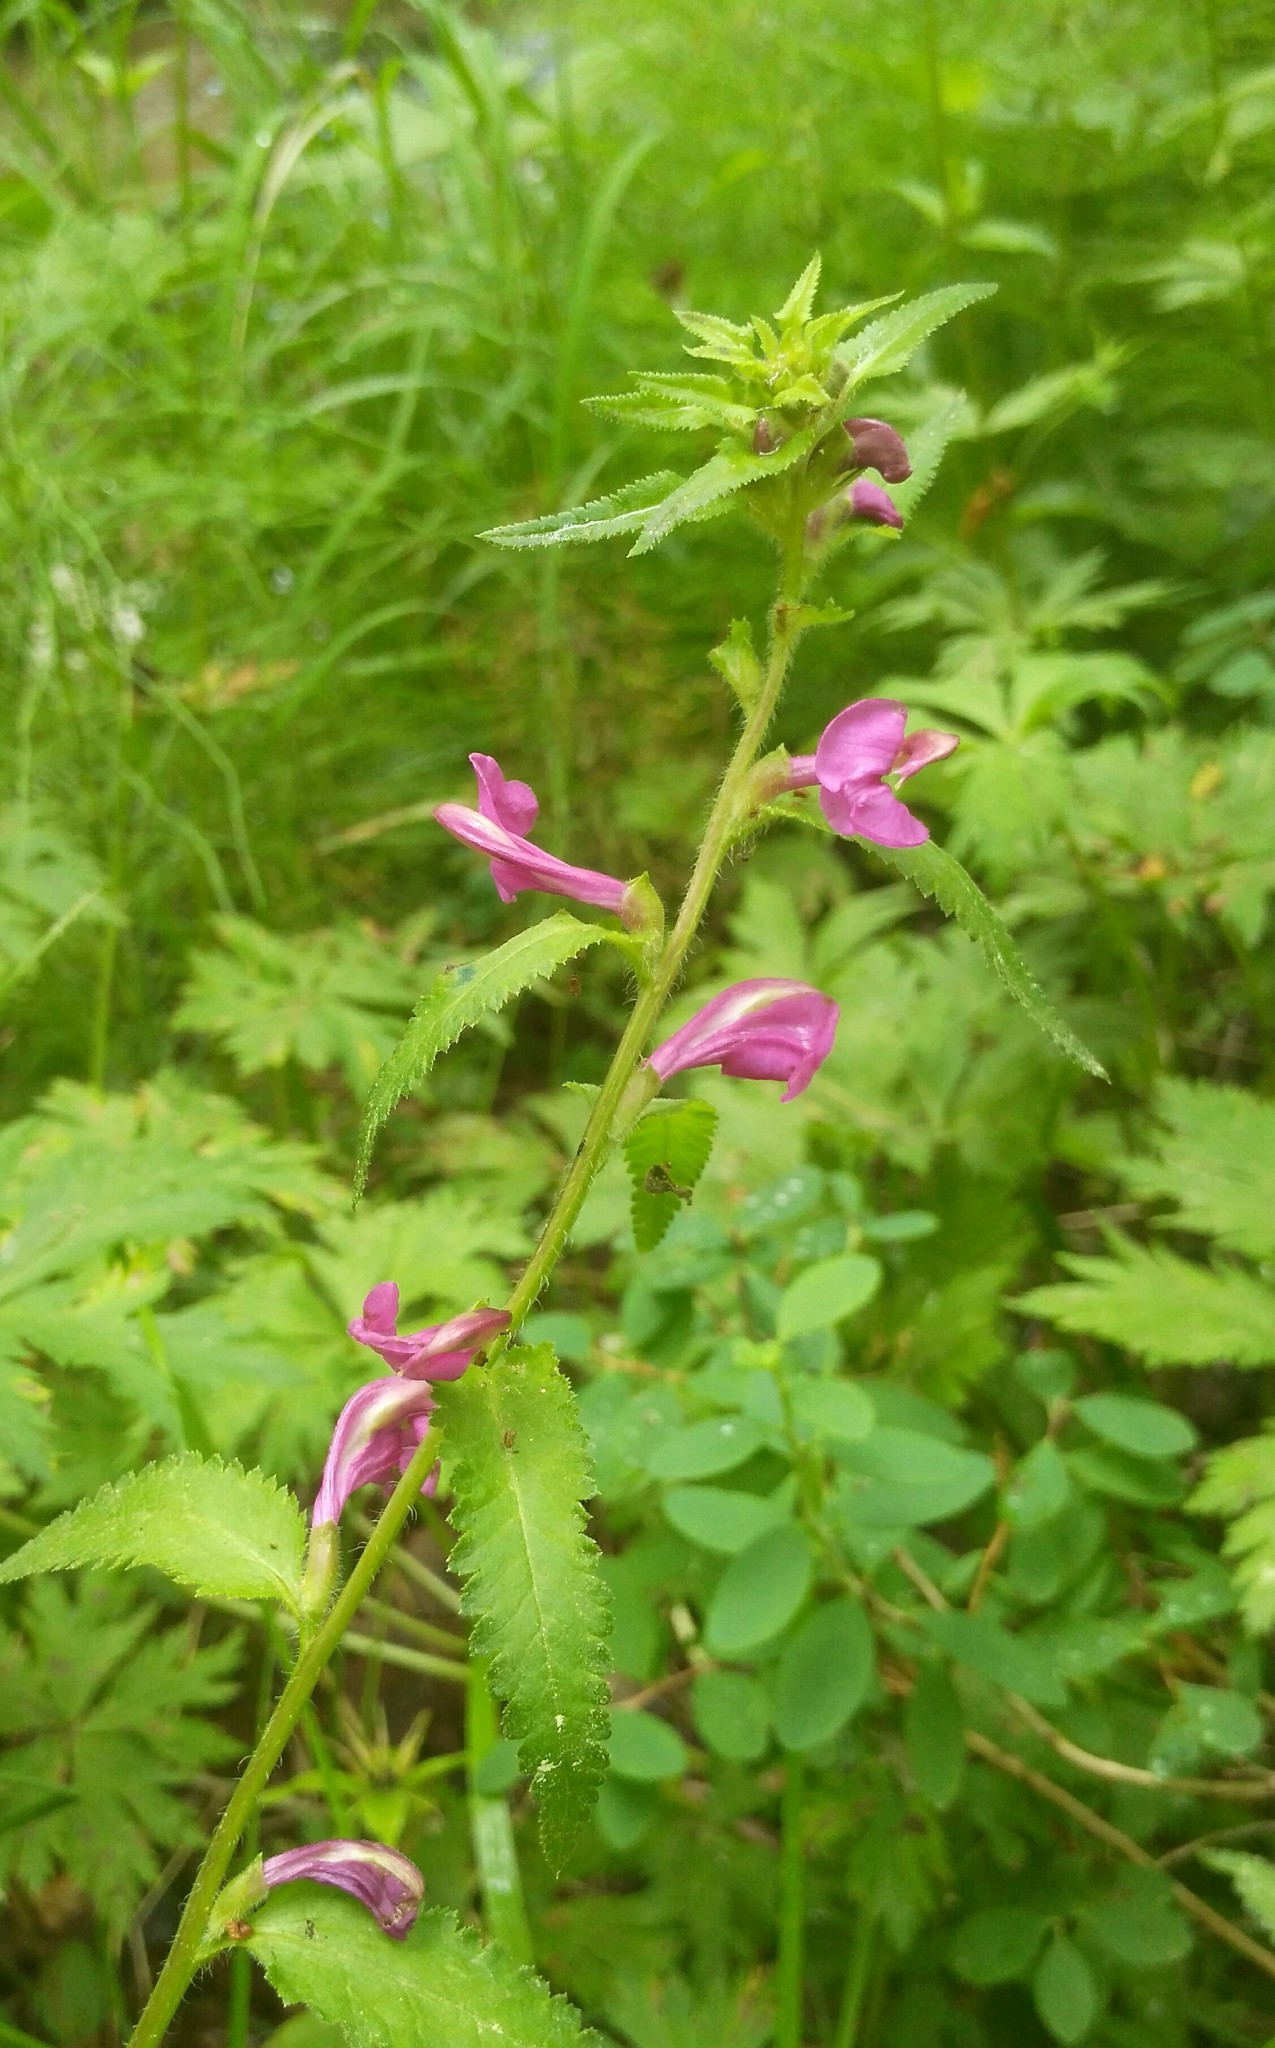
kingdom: Plantae
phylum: Tracheophyta
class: Magnoliopsida
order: Lamiales
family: Orobanchaceae
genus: Pedicularis
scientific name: Pedicularis resupinata
